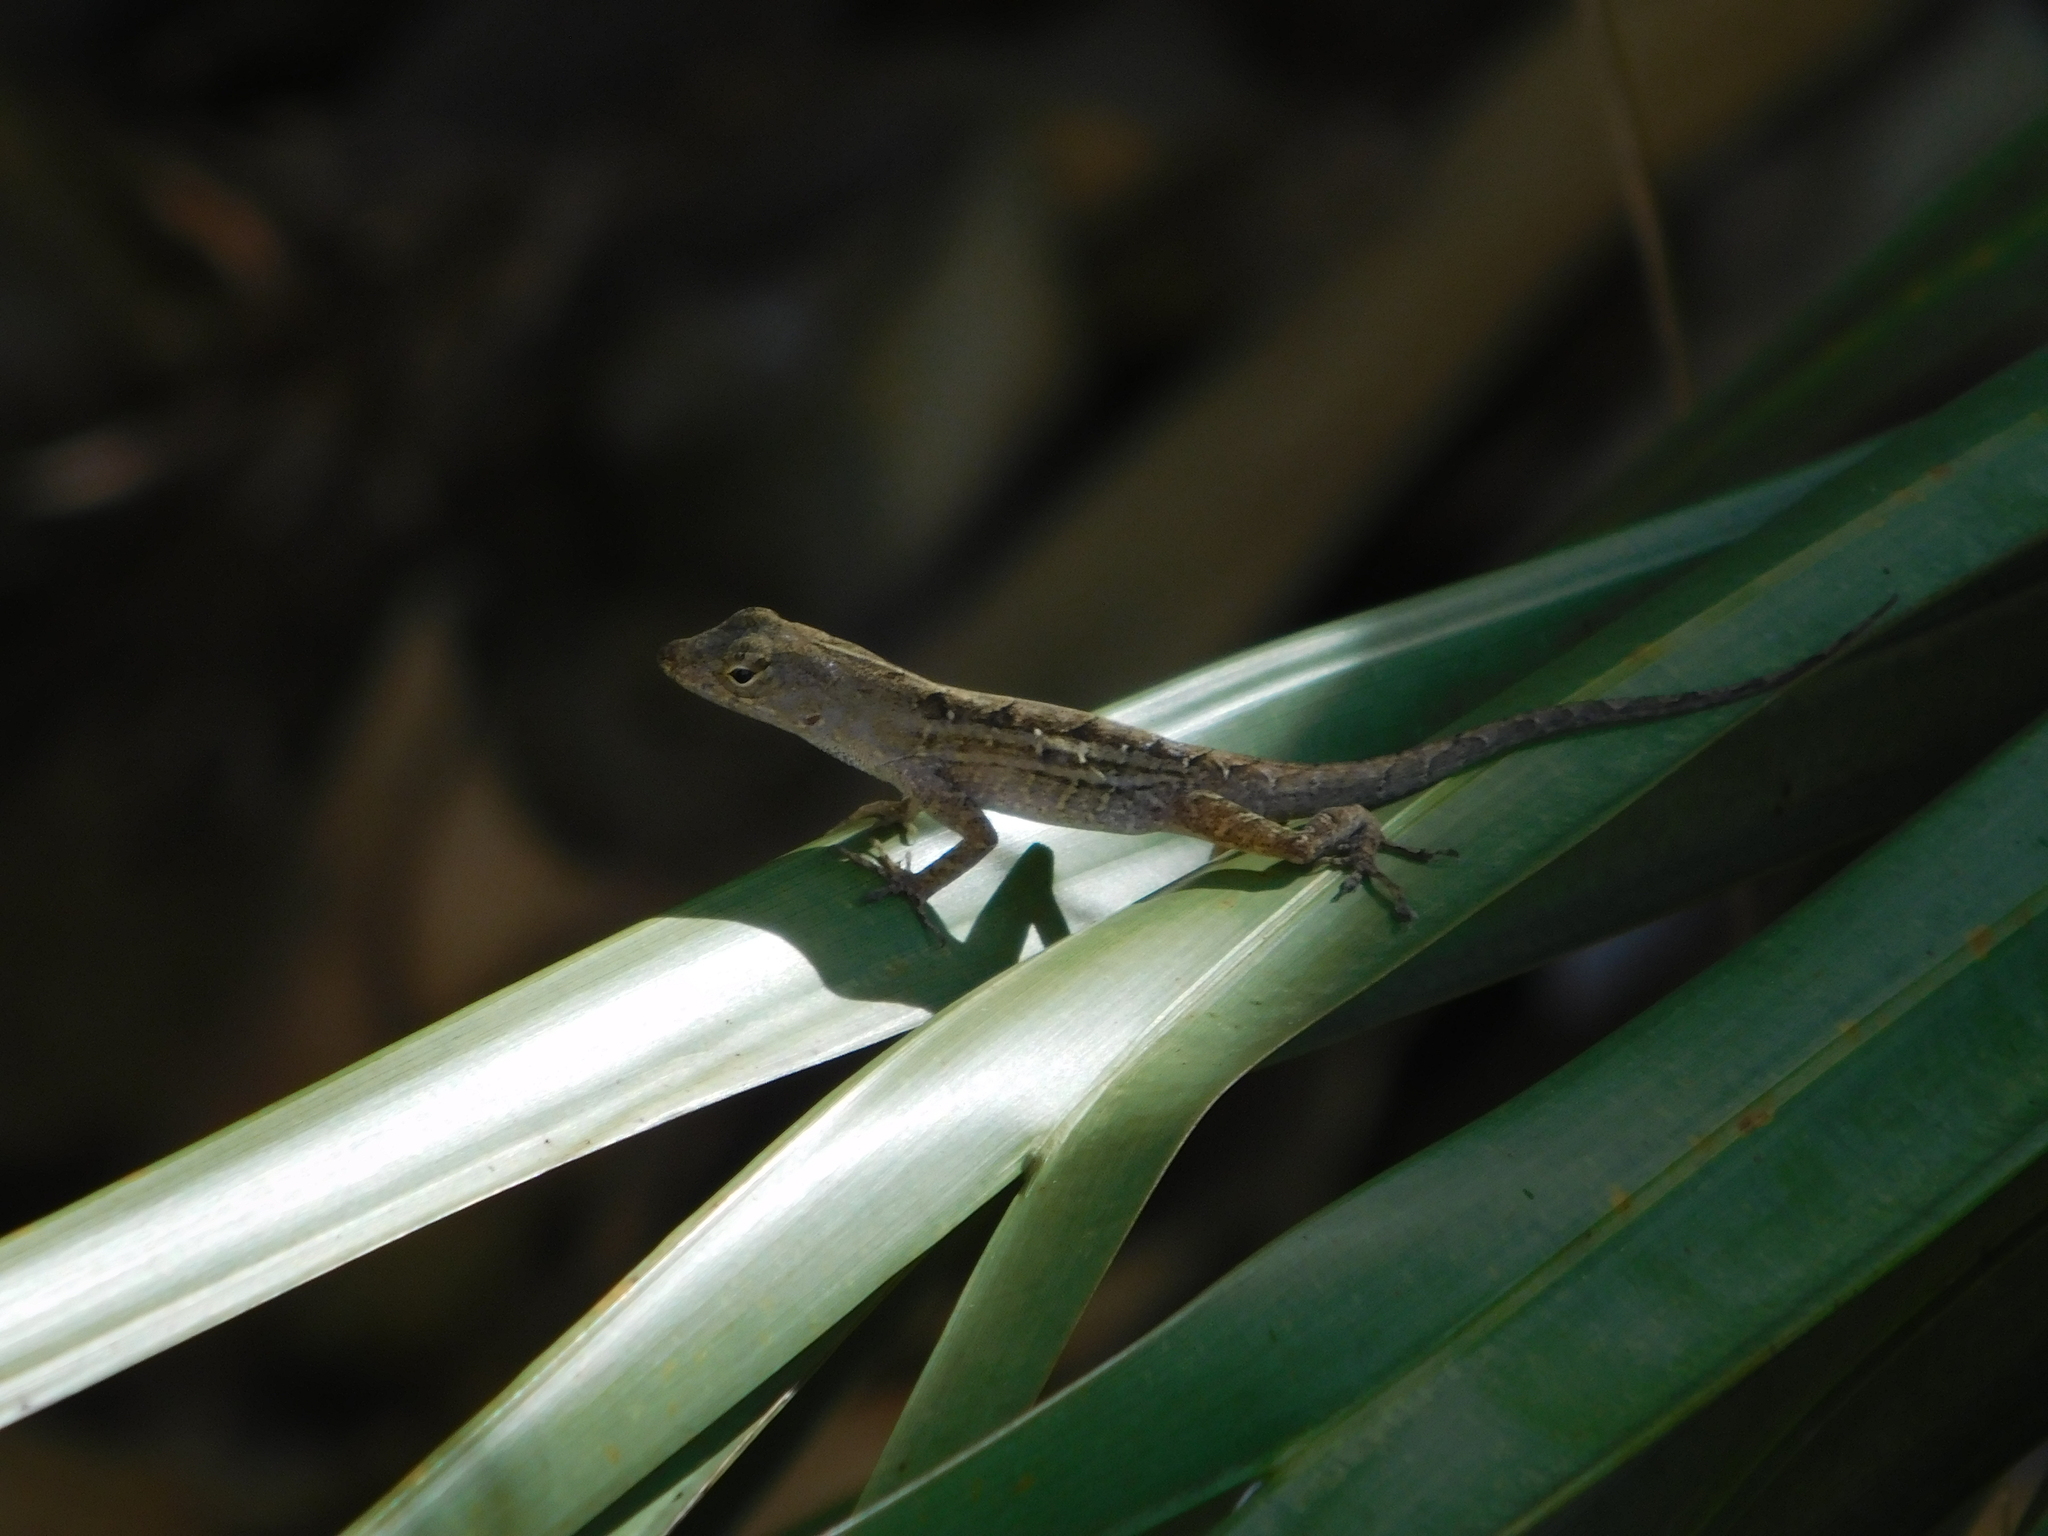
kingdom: Animalia
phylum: Chordata
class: Squamata
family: Dactyloidae
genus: Anolis
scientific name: Anolis sagrei
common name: Brown anole
